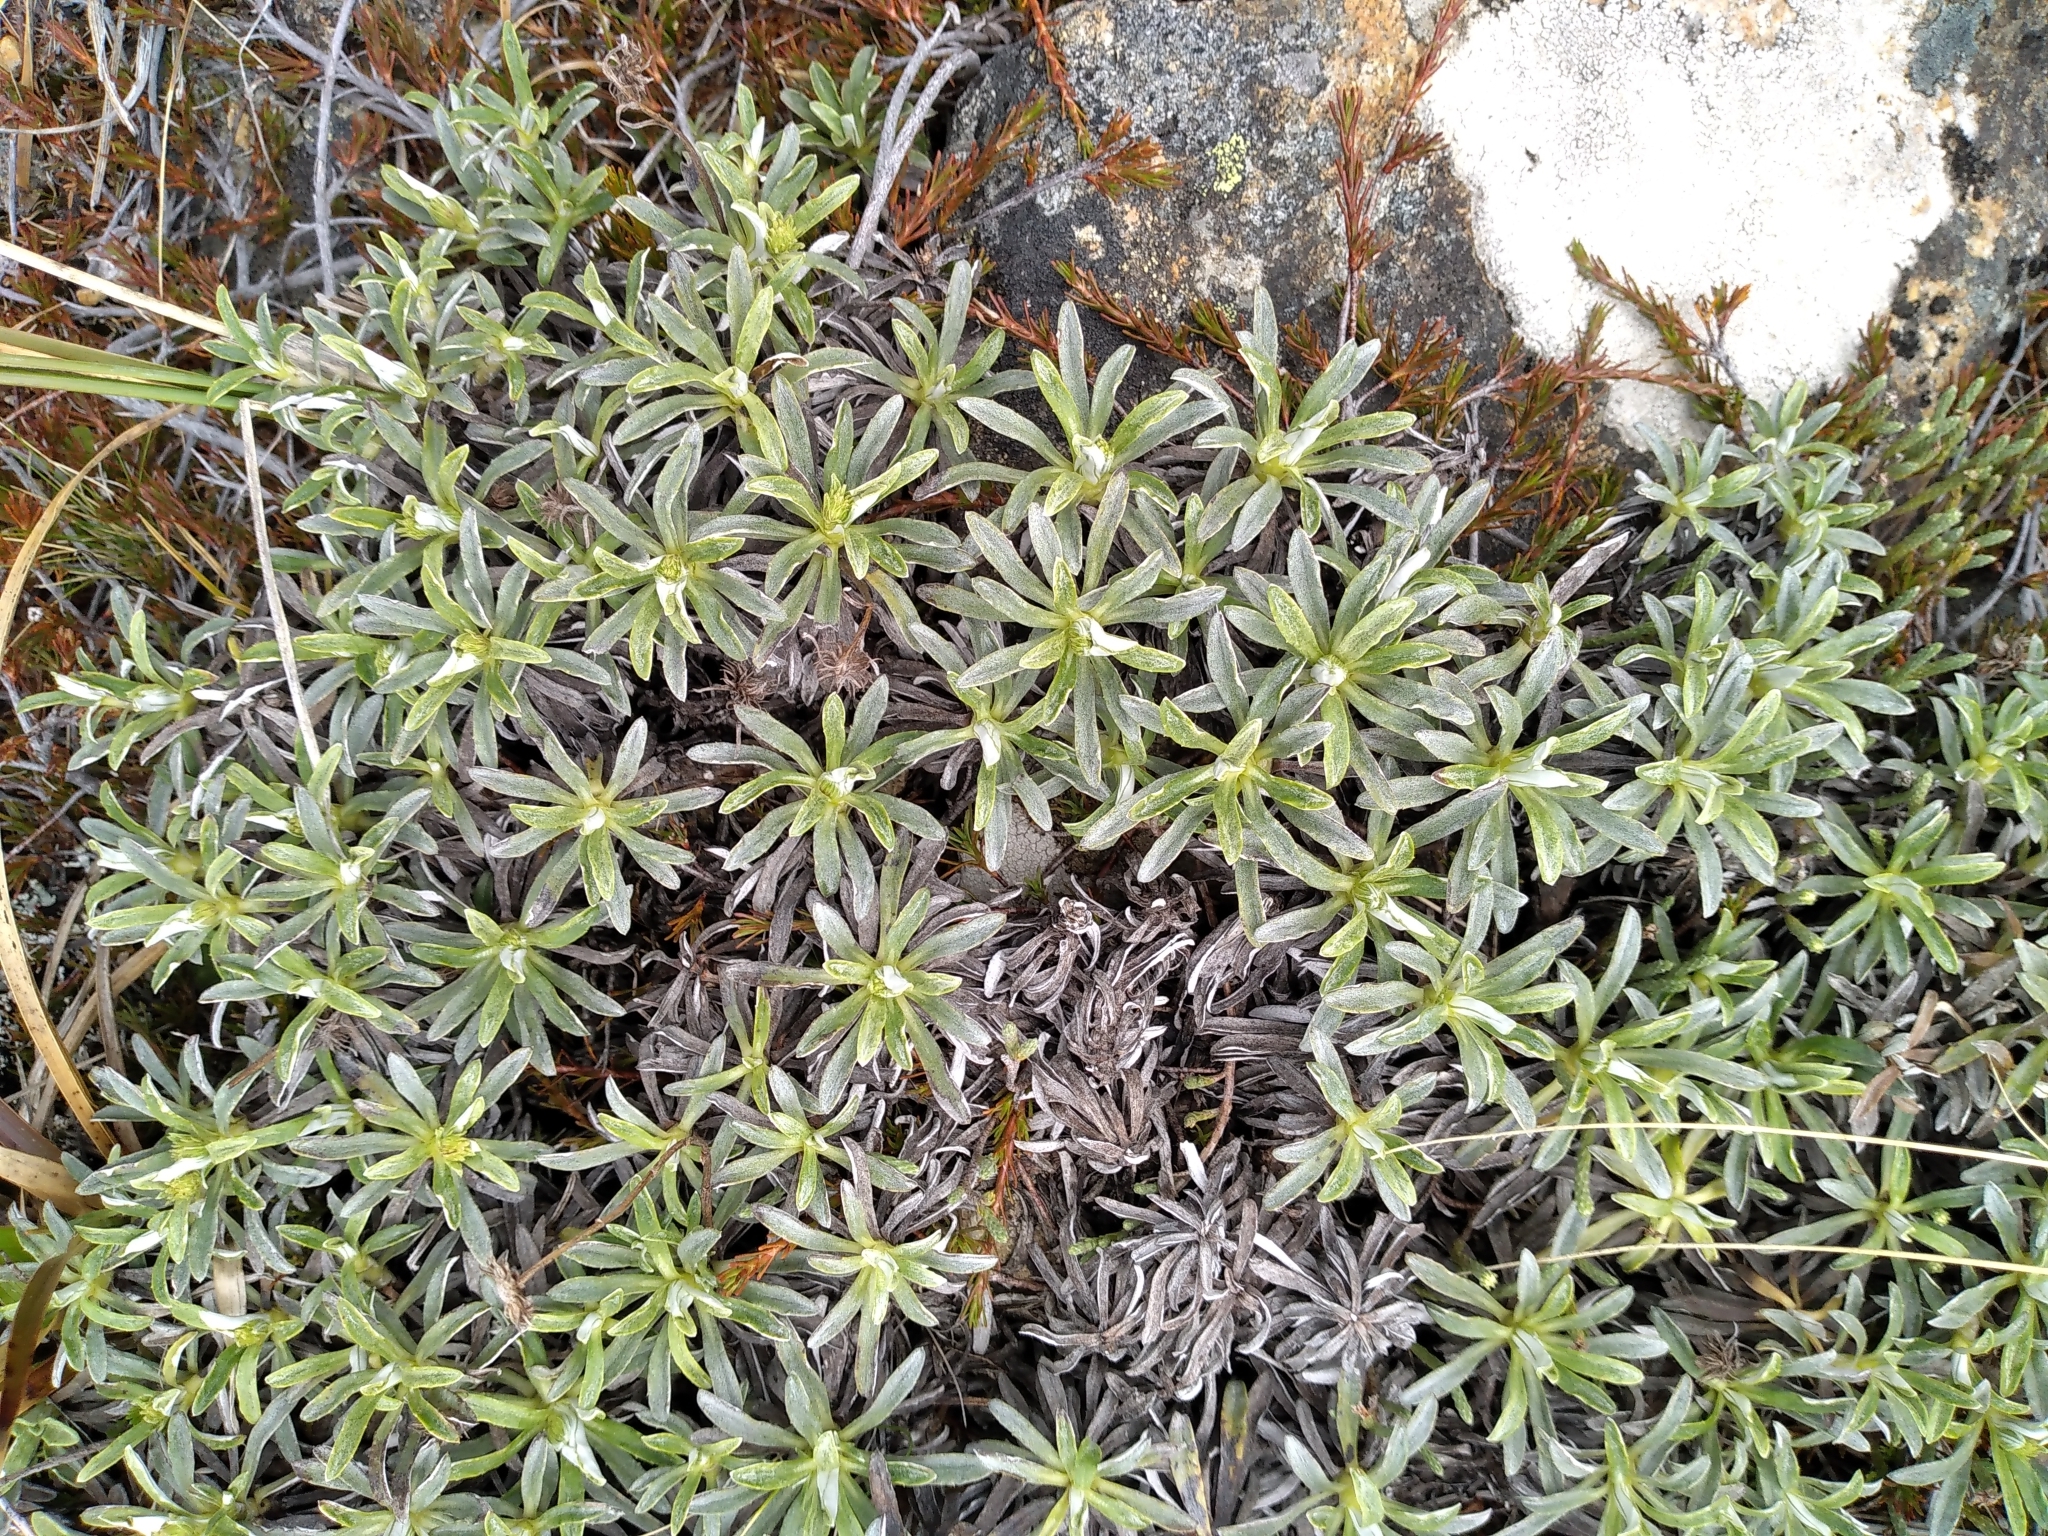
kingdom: Plantae
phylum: Tracheophyta
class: Magnoliopsida
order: Asterales
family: Asteraceae
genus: Celmisia
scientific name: Celmisia angustifolia
